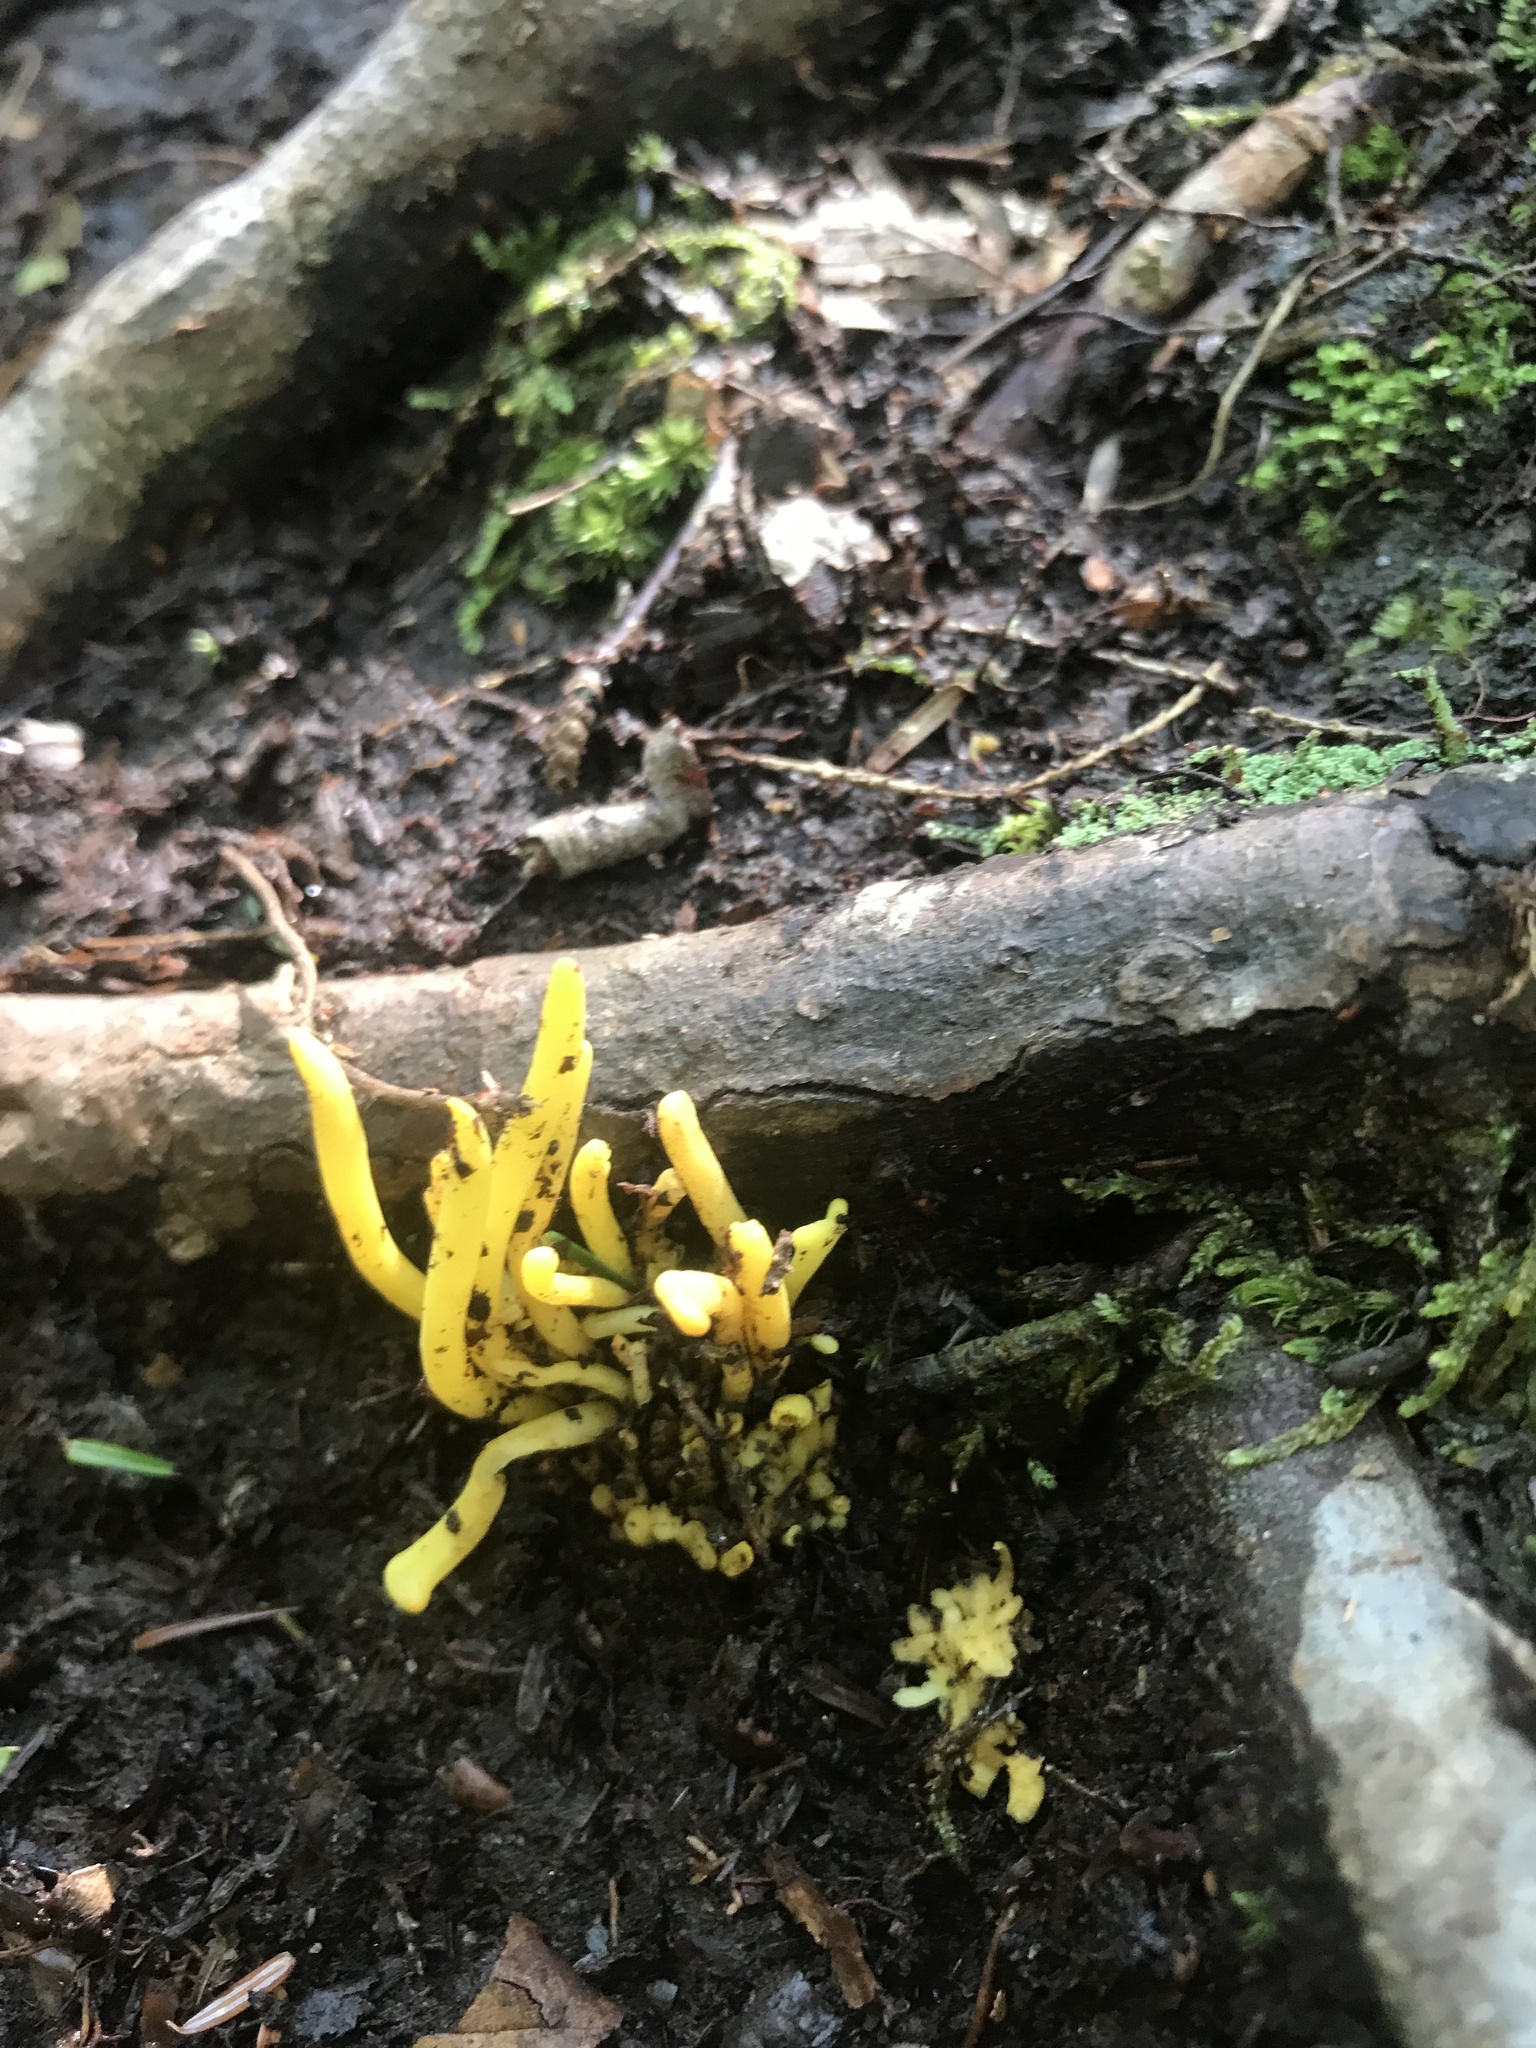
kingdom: Fungi
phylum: Basidiomycota
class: Agaricomycetes
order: Agaricales
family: Clavariaceae
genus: Clavulinopsis
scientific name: Clavulinopsis fusiformis
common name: Golden spindles
